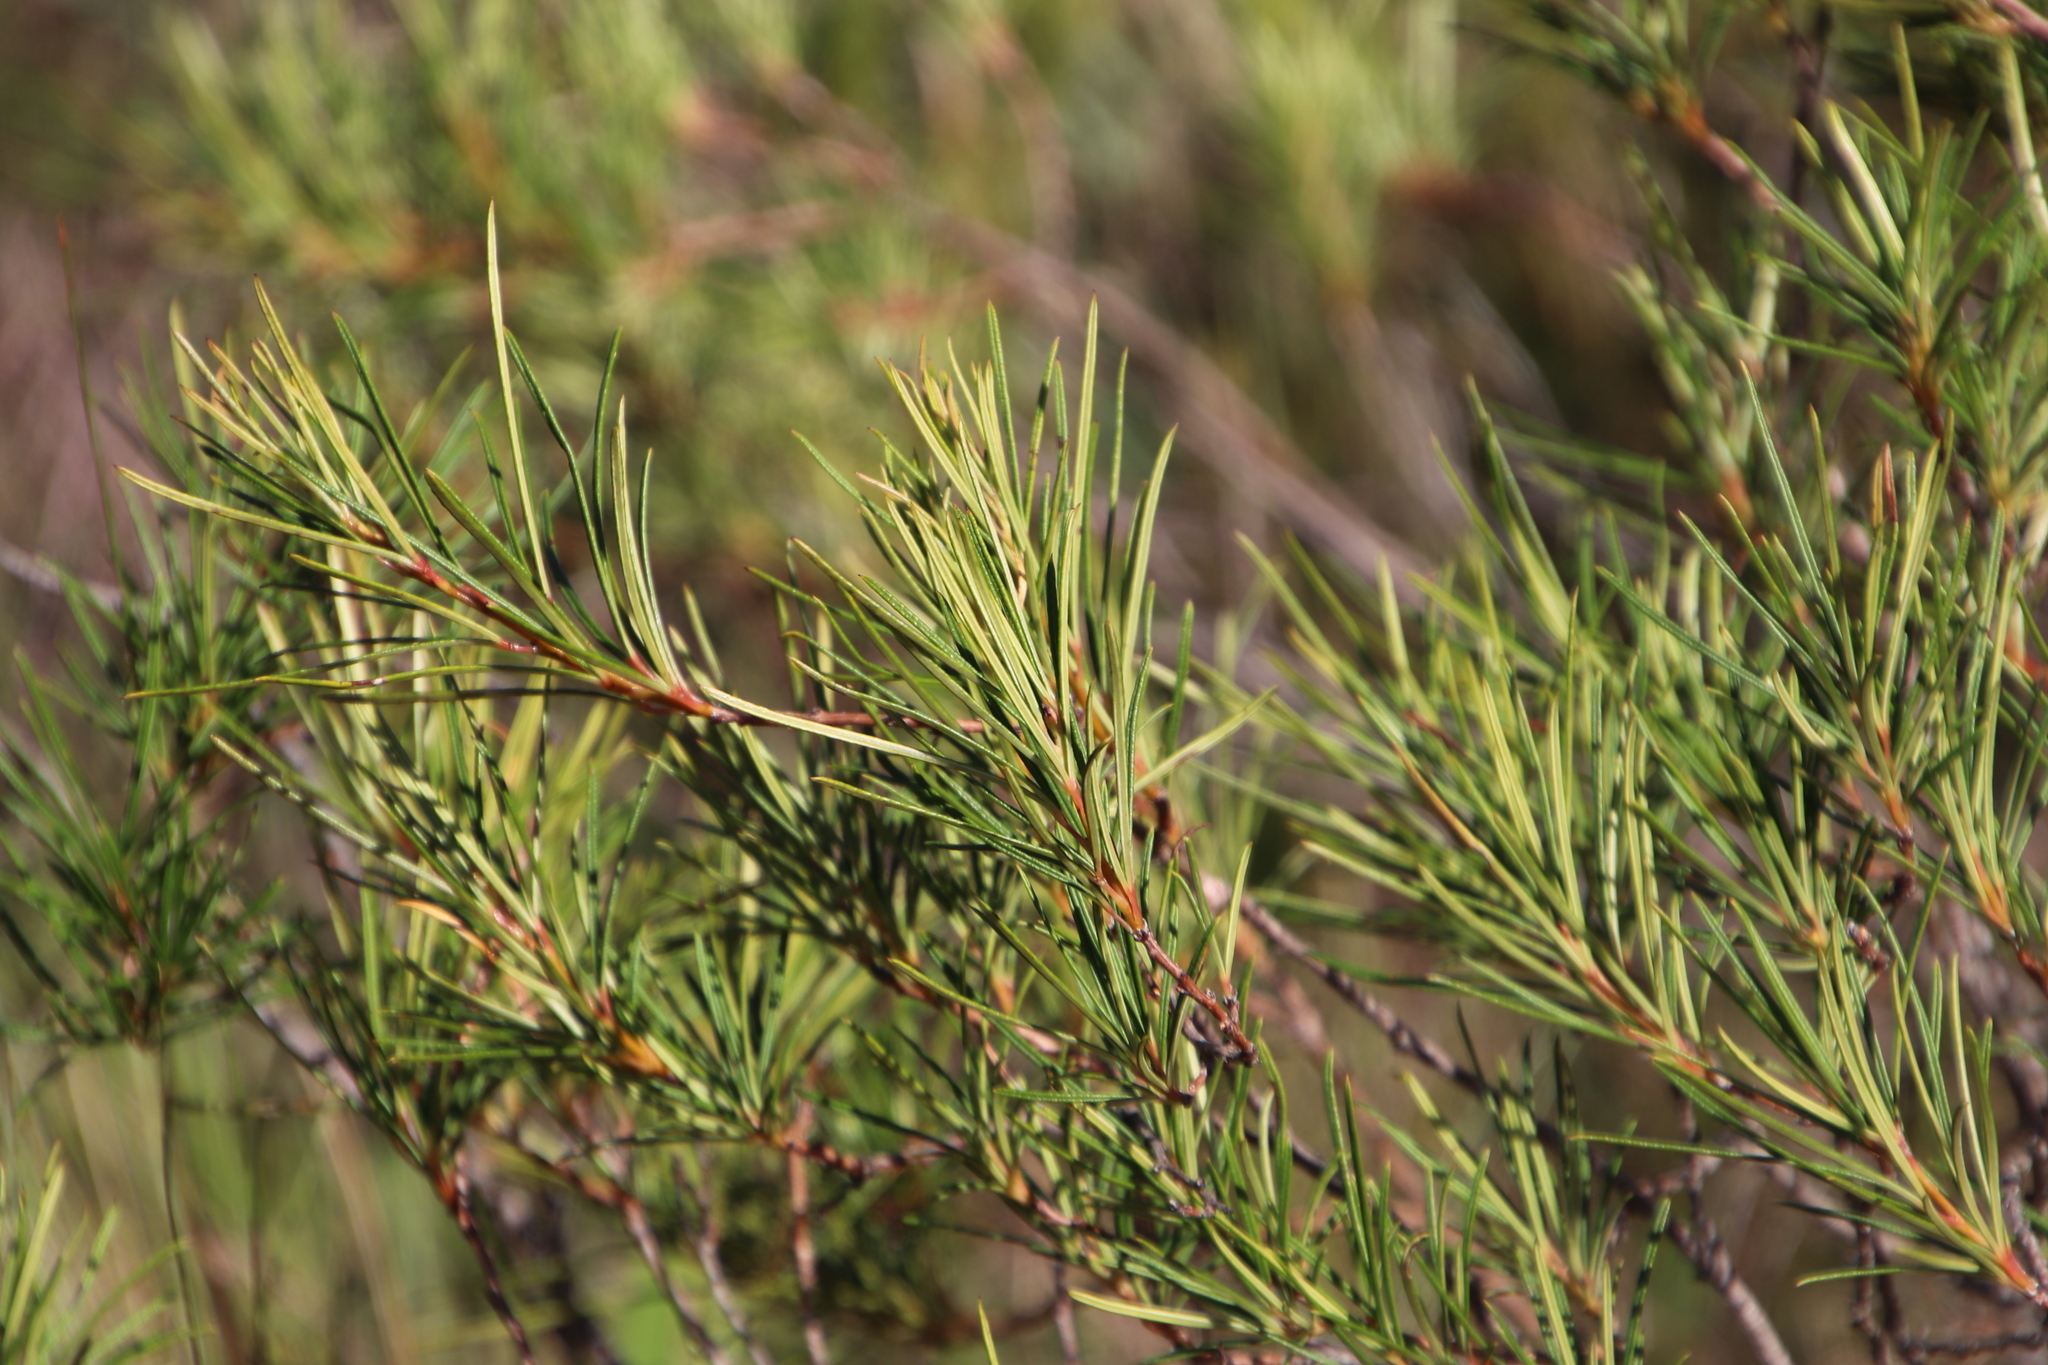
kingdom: Plantae
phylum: Tracheophyta
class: Magnoliopsida
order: Sapindales
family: Anacardiaceae
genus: Searsia
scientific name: Searsia rosmarinifolia
